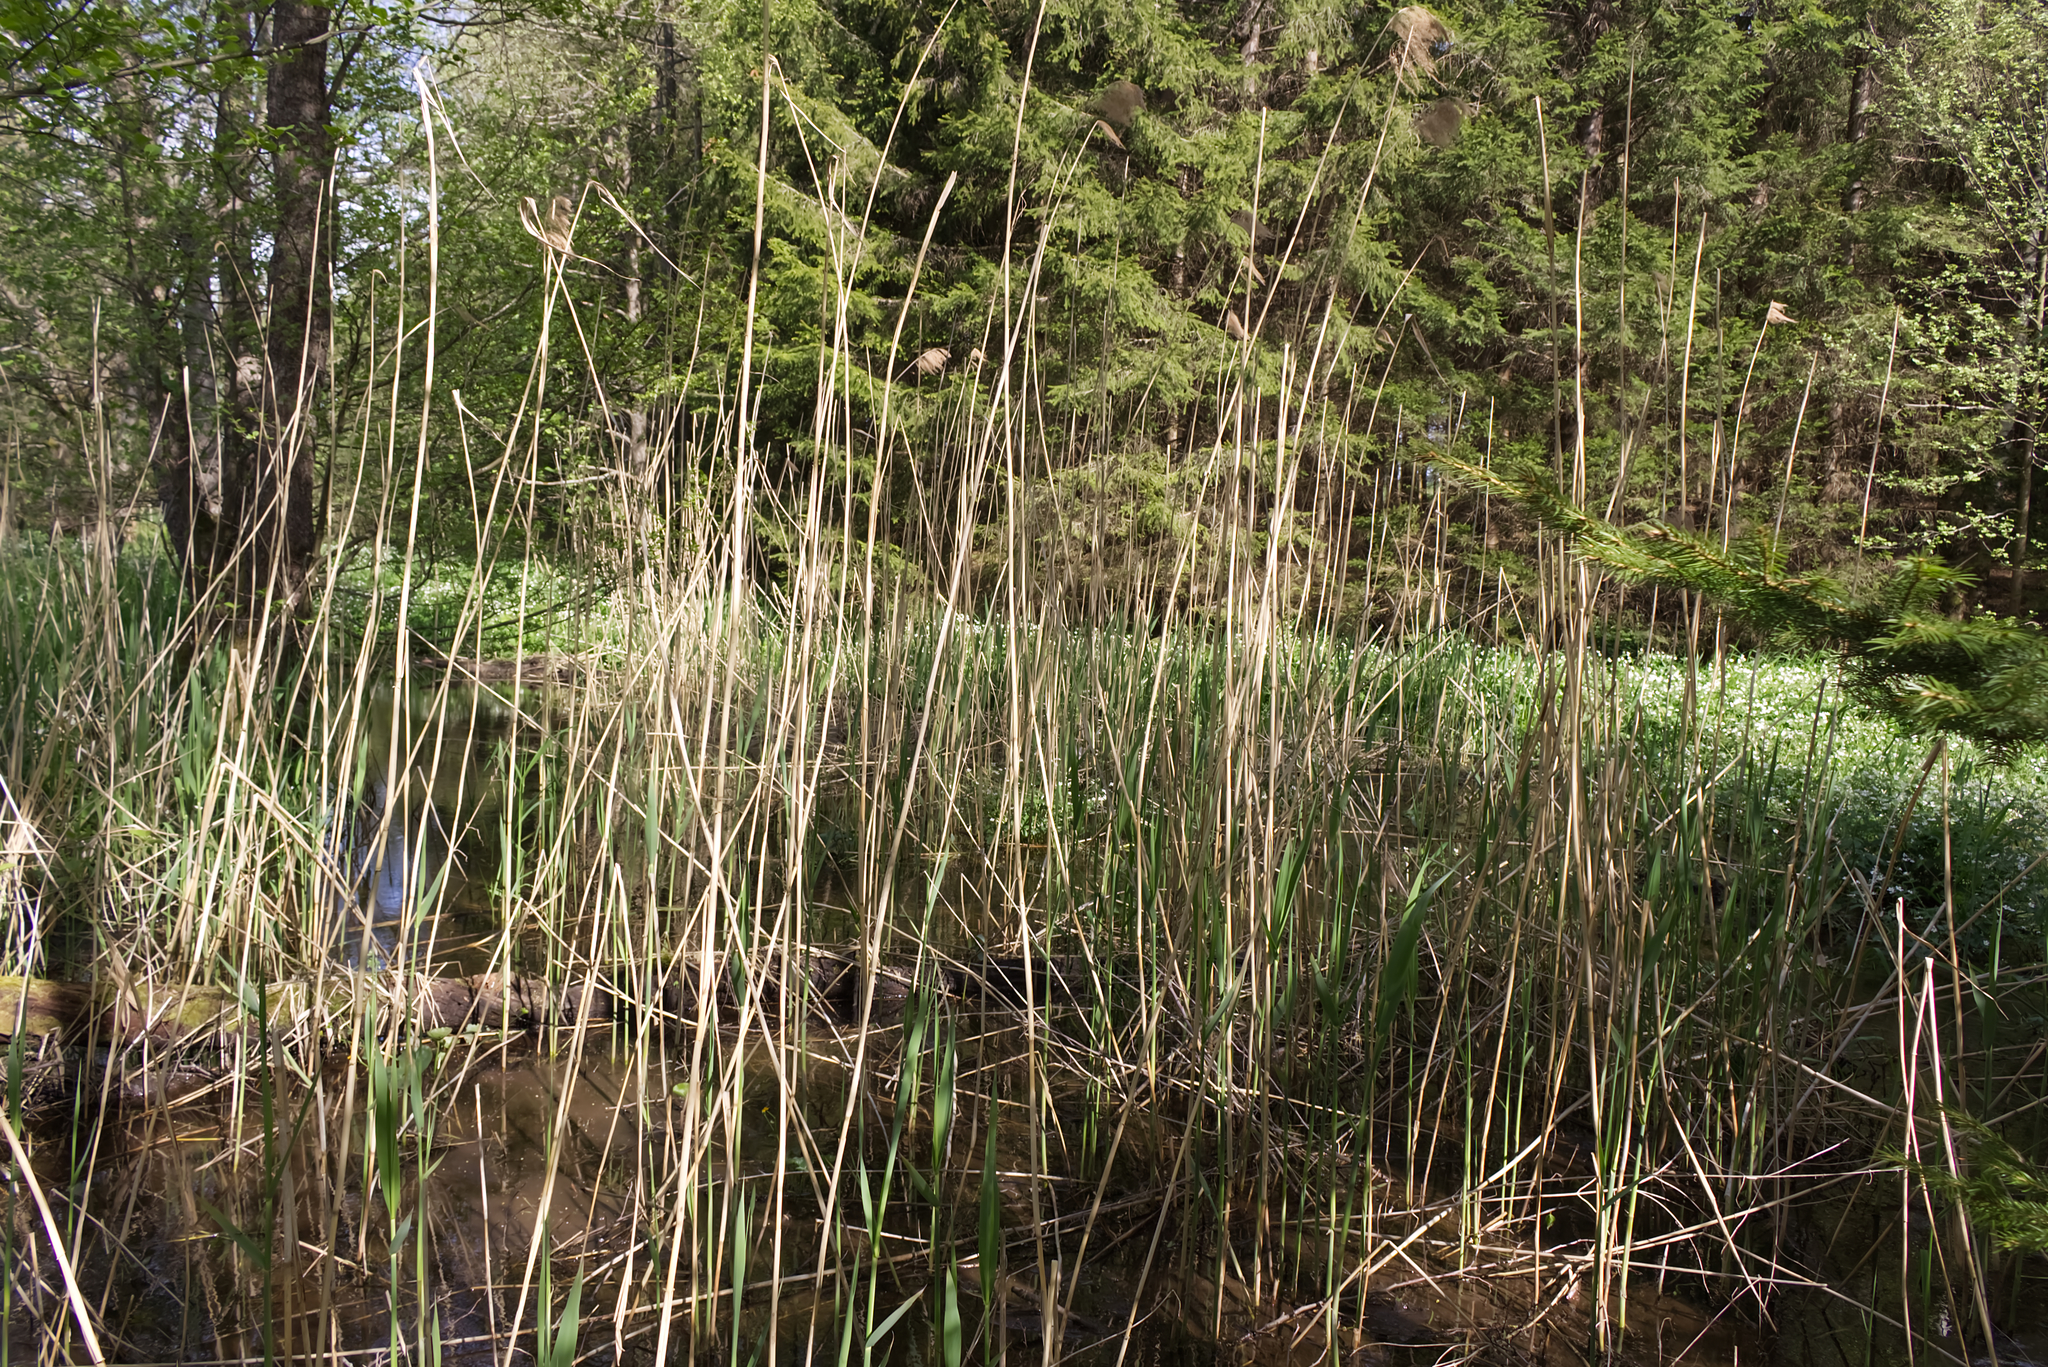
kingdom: Plantae
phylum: Tracheophyta
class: Liliopsida
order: Poales
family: Poaceae
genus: Phragmites
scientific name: Phragmites australis
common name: Common reed
